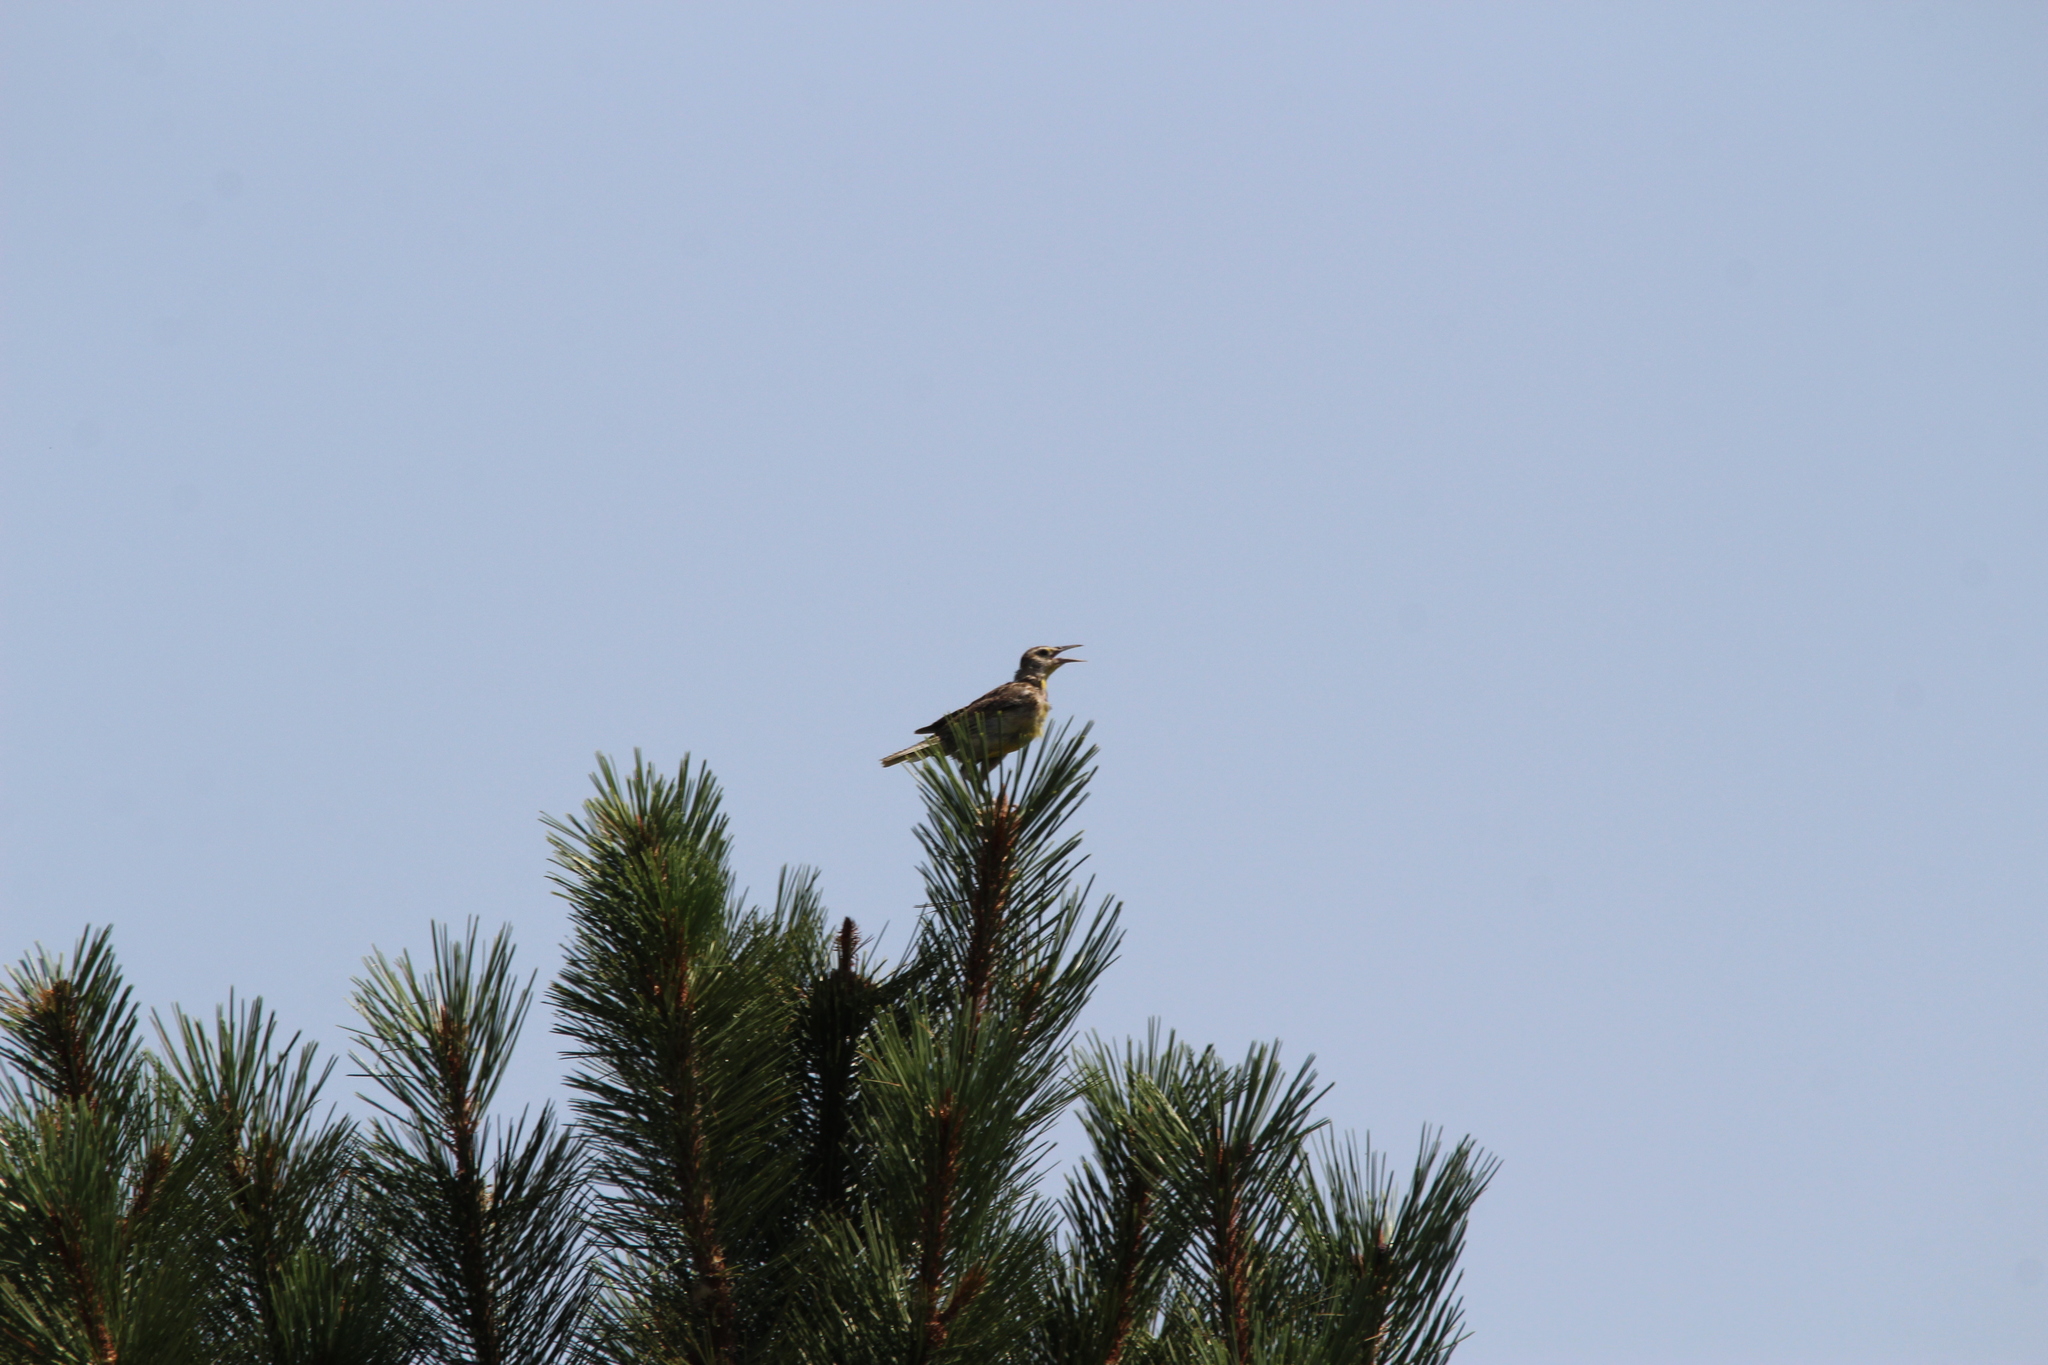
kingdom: Animalia
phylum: Chordata
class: Aves
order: Passeriformes
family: Icteridae
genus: Sturnella
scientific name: Sturnella neglecta
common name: Western meadowlark
